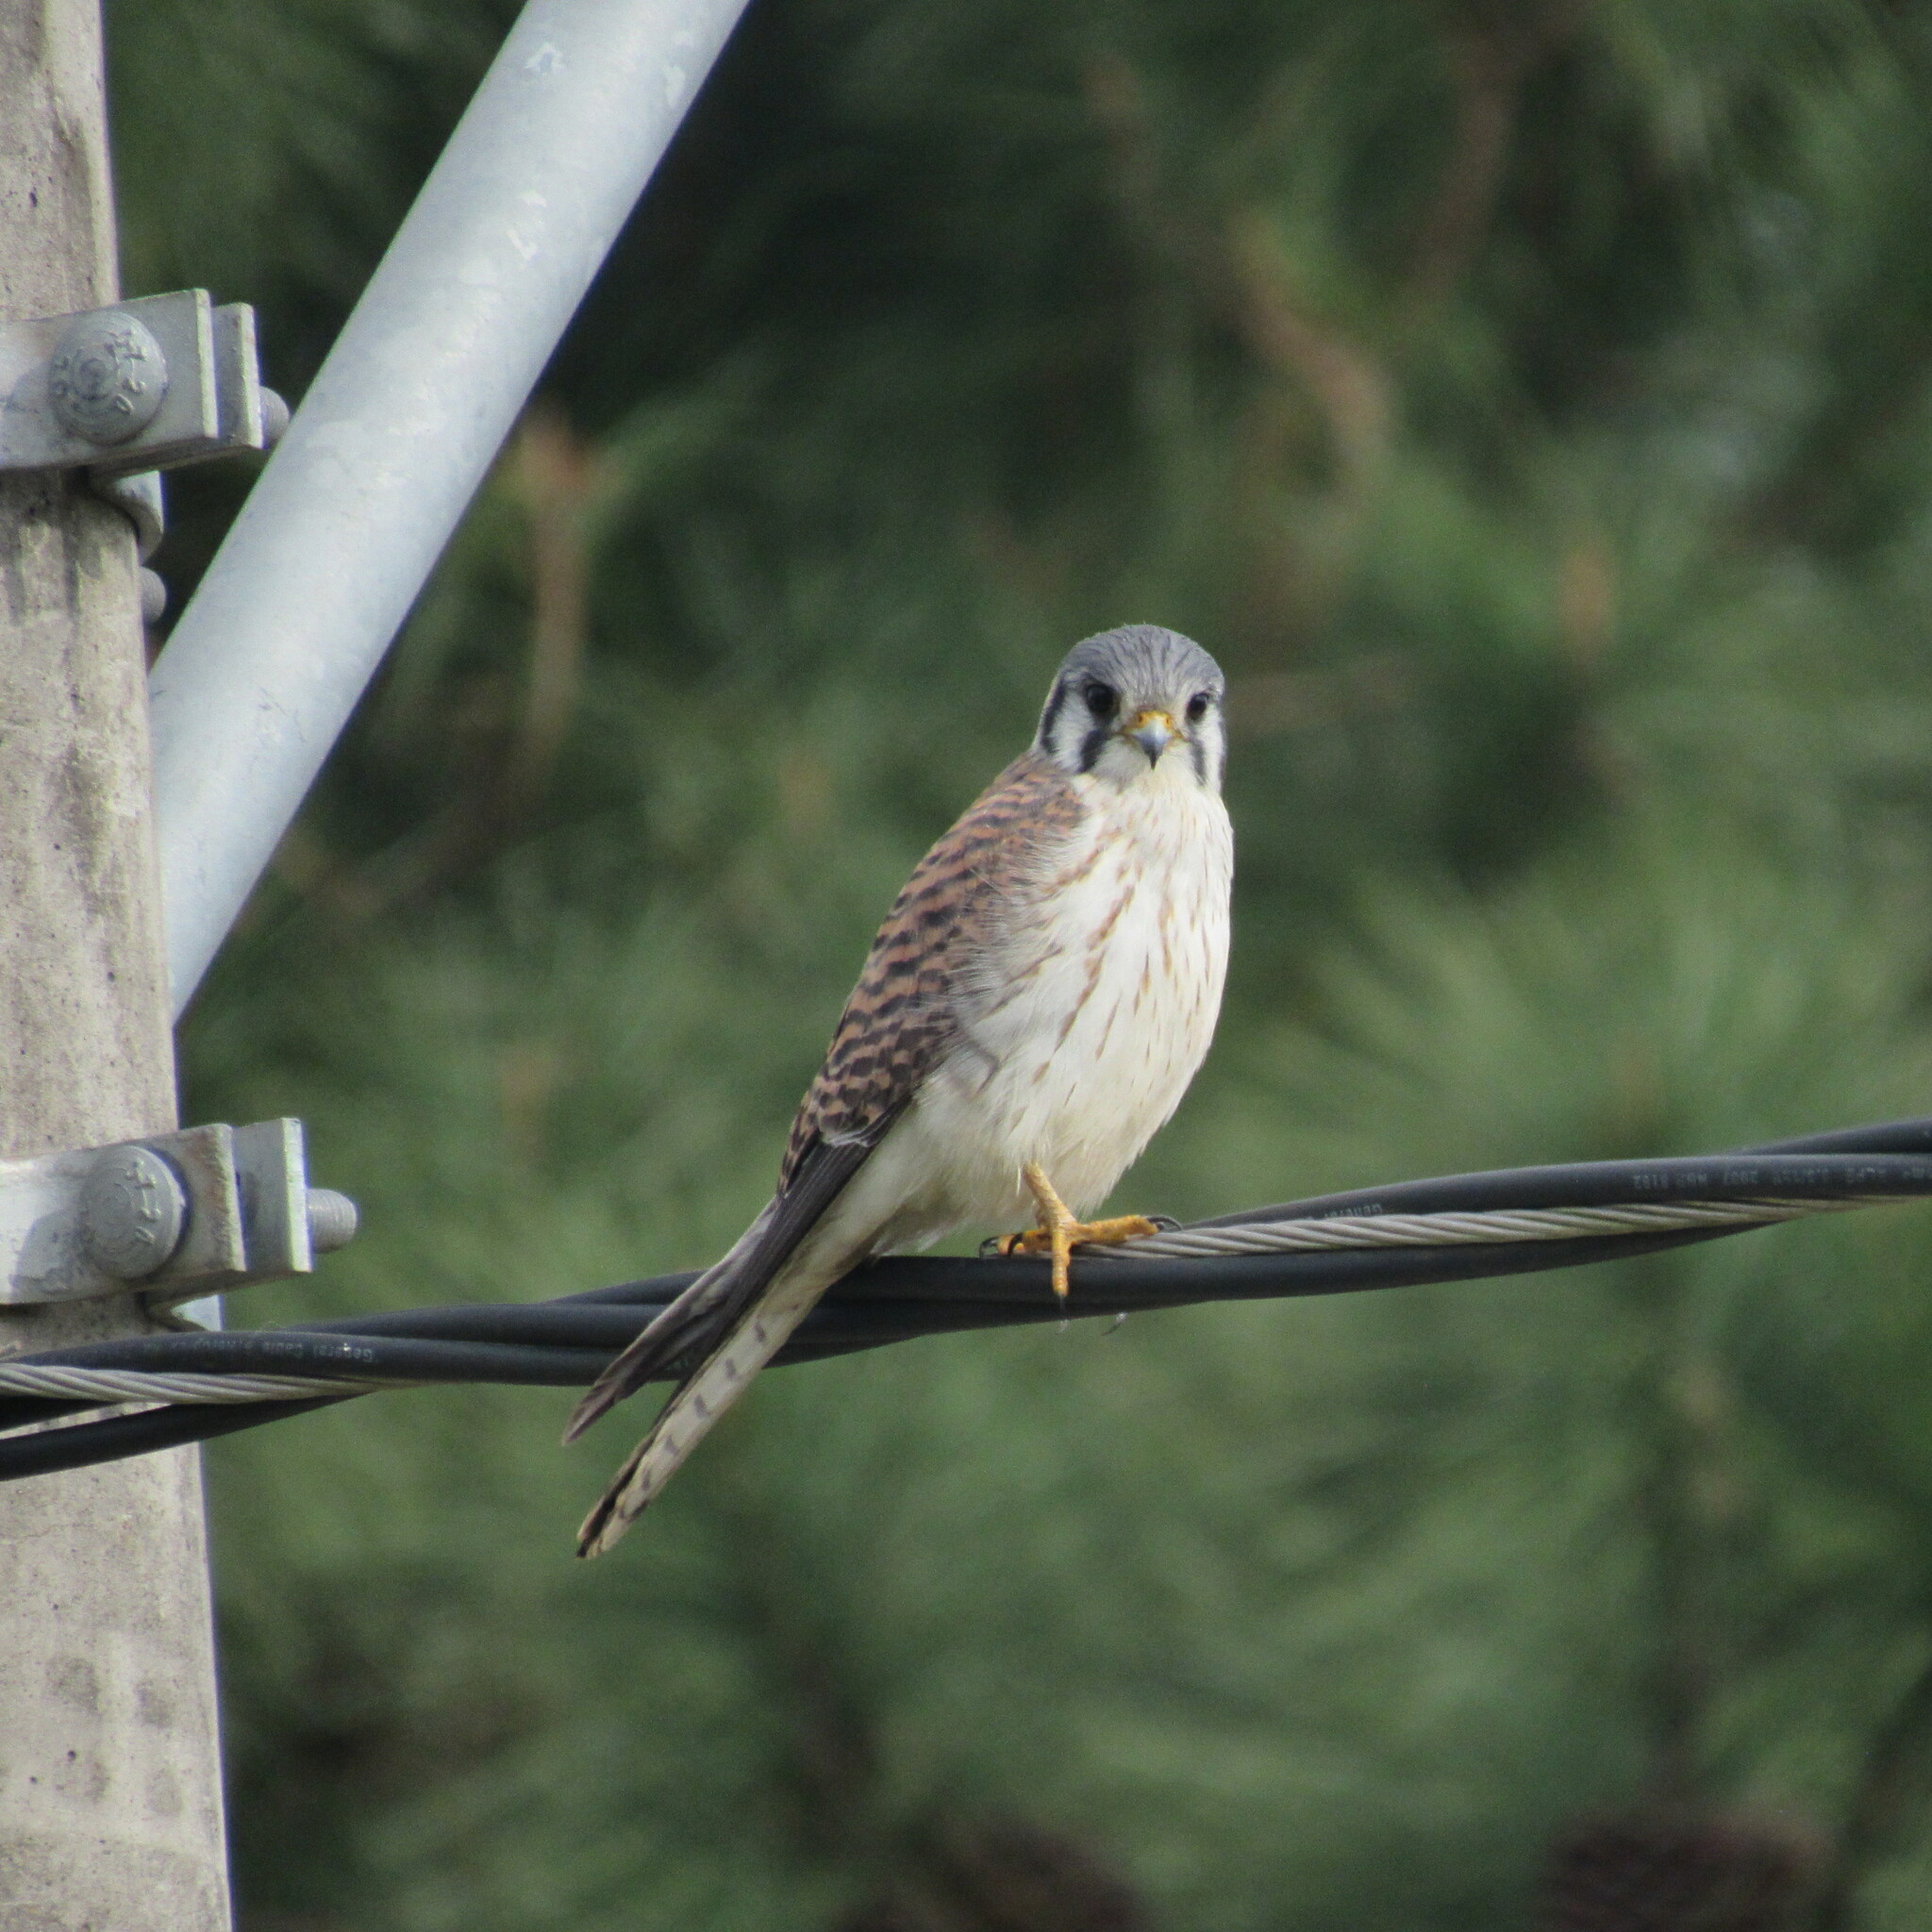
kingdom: Animalia
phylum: Chordata
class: Aves
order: Falconiformes
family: Falconidae
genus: Falco
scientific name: Falco sparverius
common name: American kestrel
